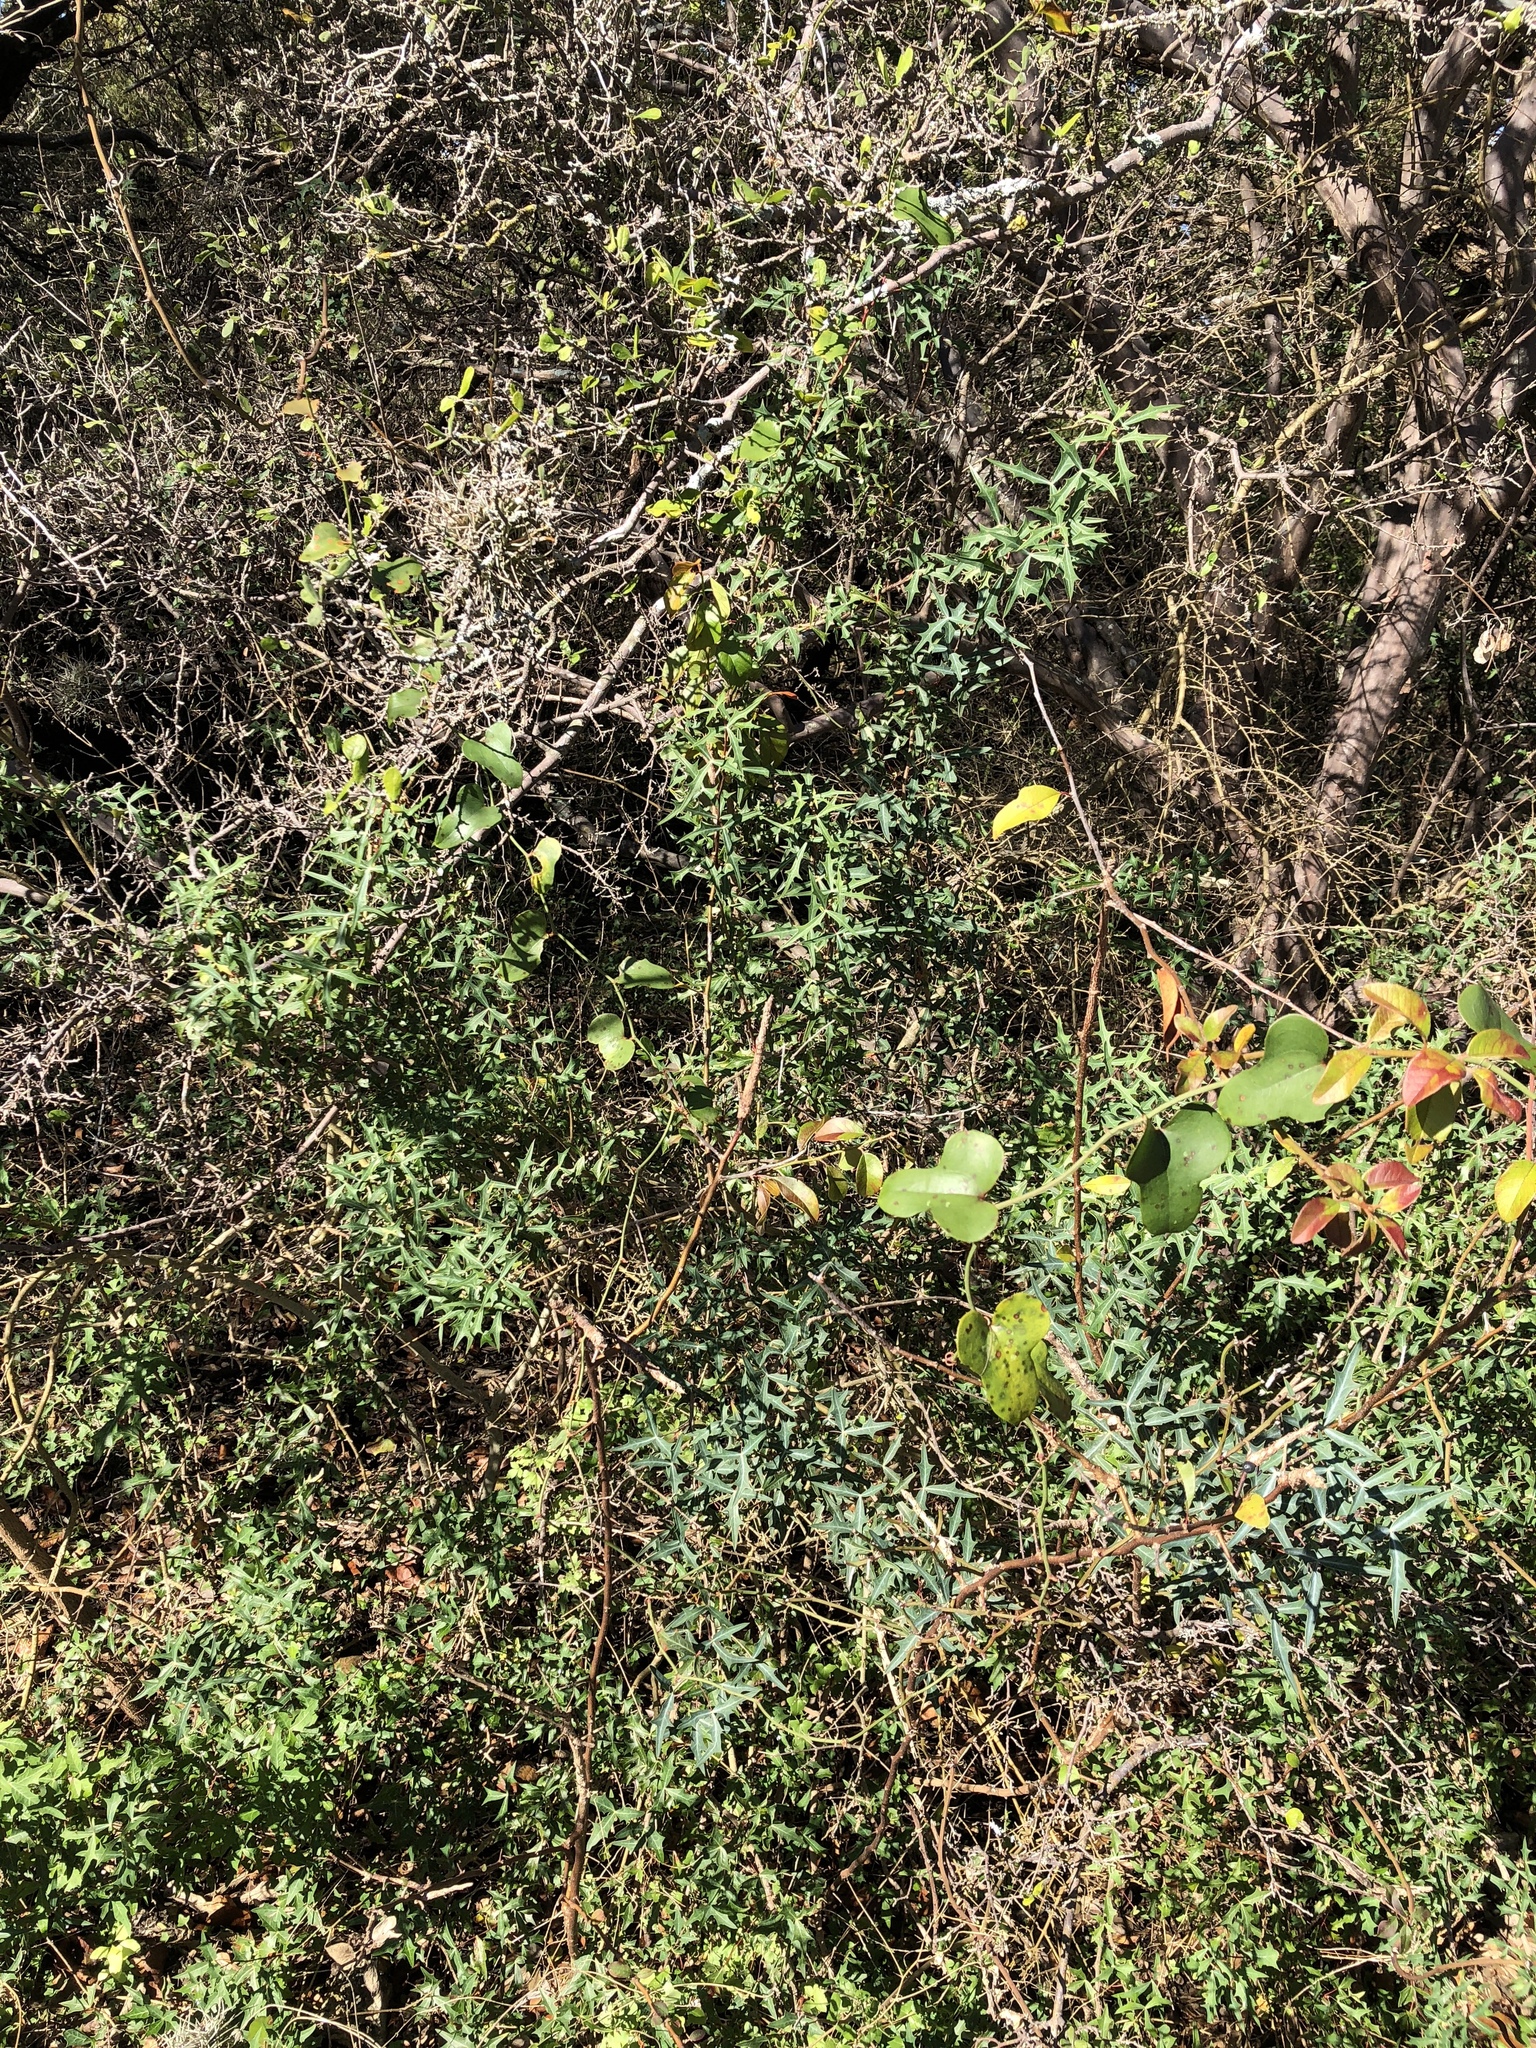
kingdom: Plantae
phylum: Tracheophyta
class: Liliopsida
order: Liliales
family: Smilacaceae
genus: Smilax
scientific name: Smilax bona-nox
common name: Catbrier
